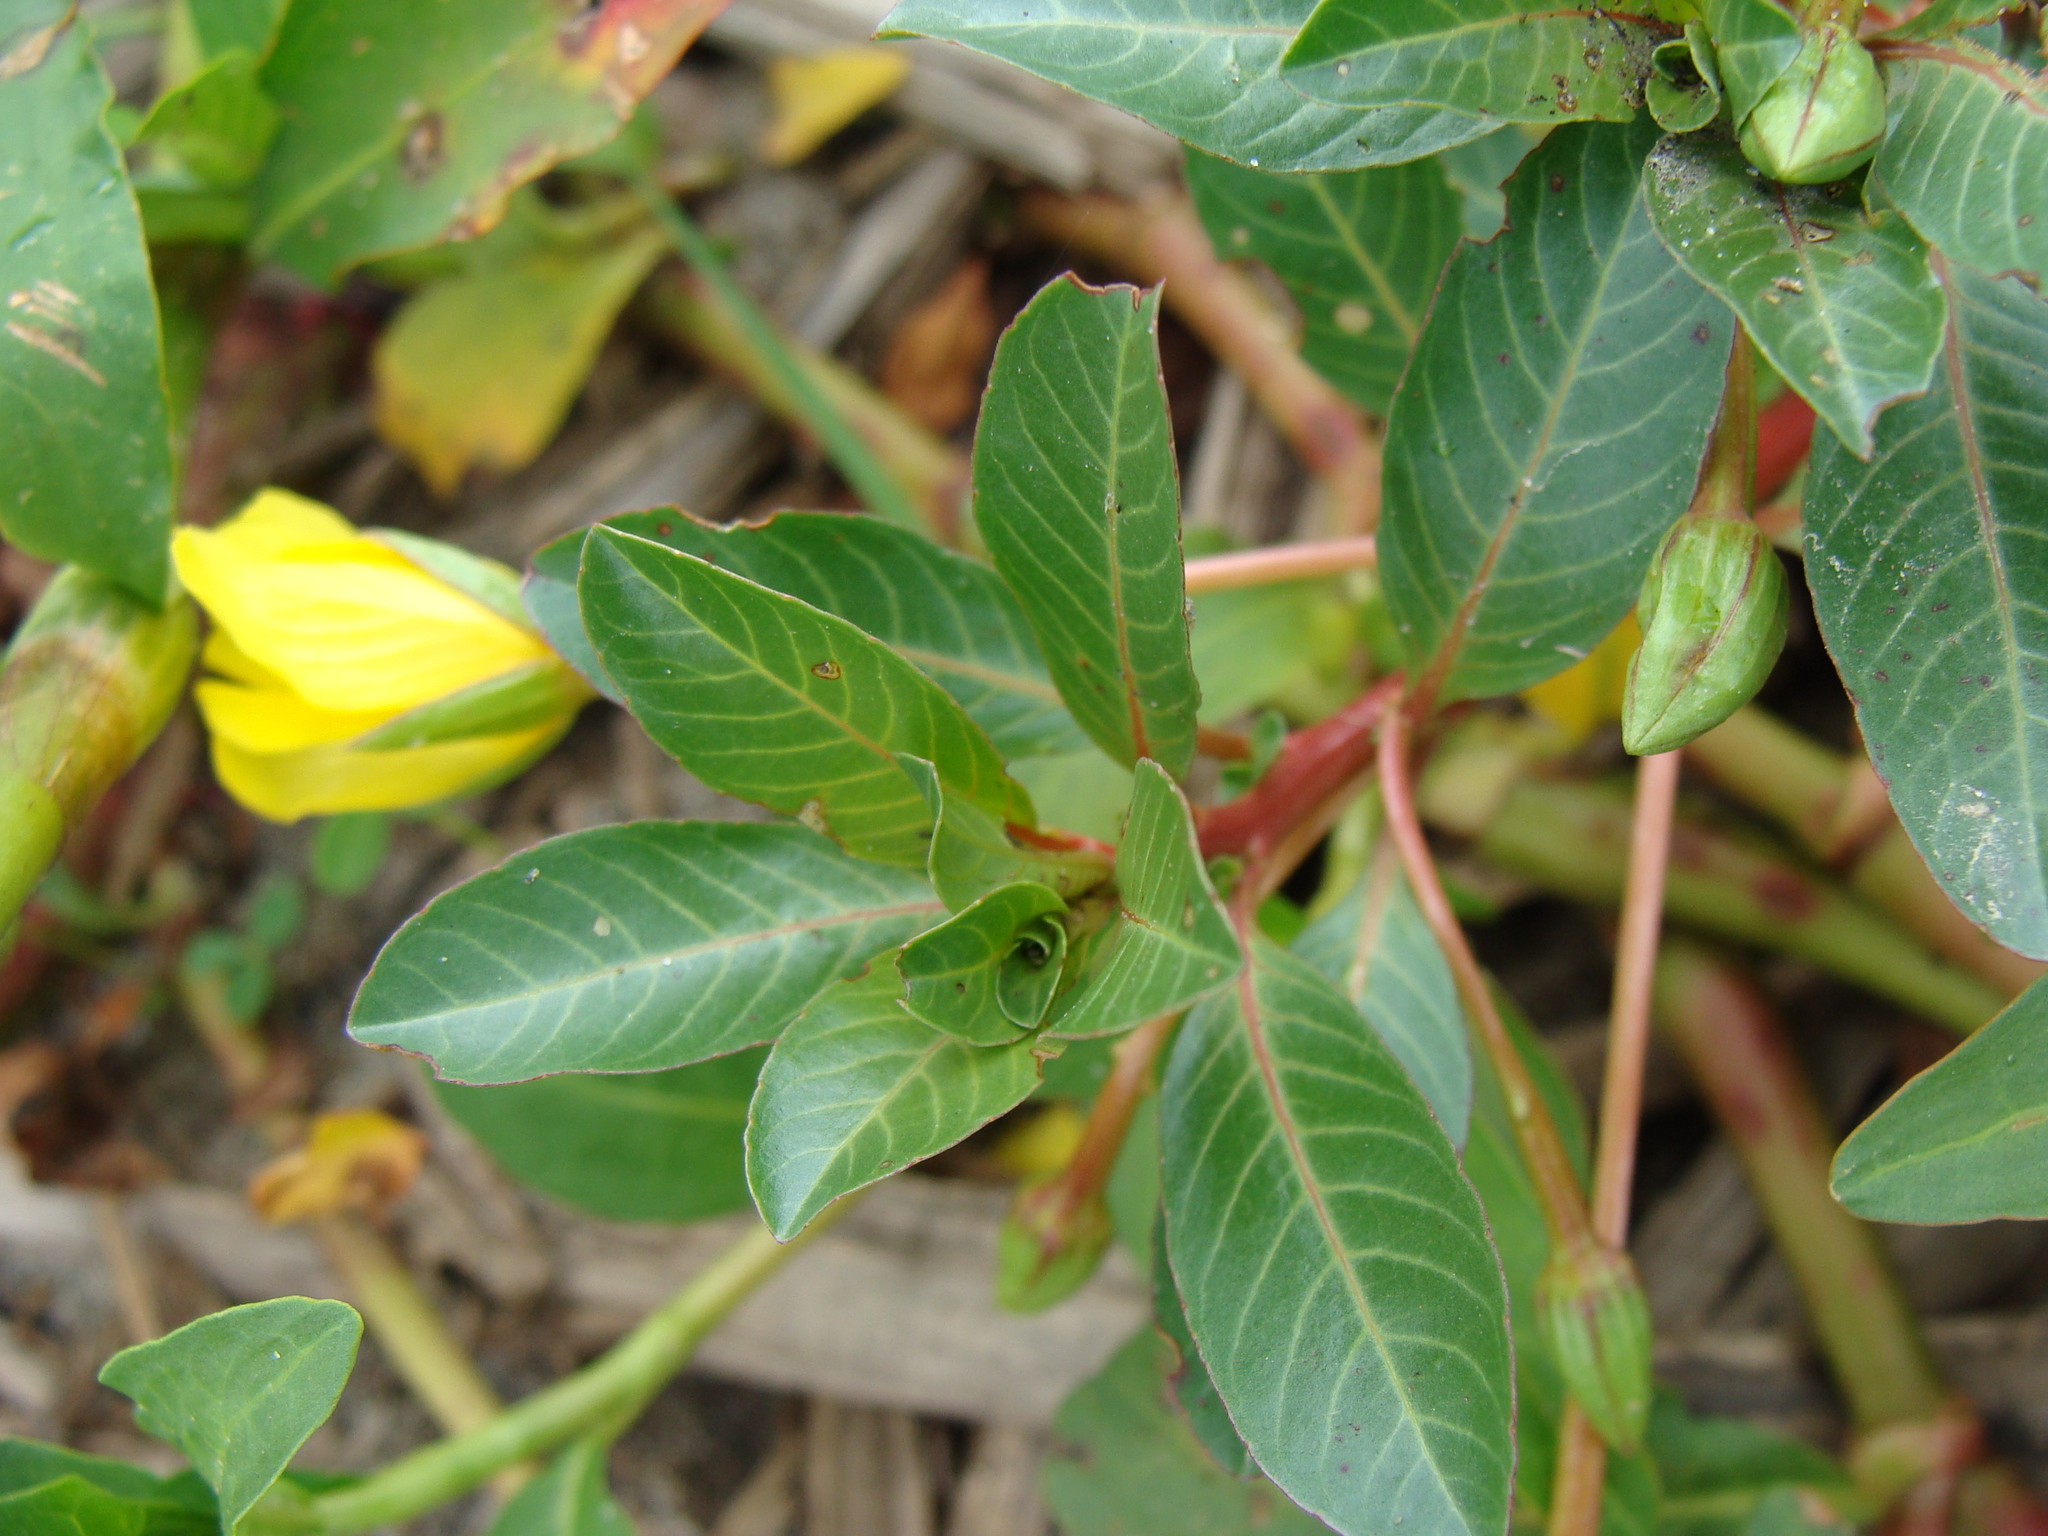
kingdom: Plantae
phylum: Tracheophyta
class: Magnoliopsida
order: Myrtales
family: Onagraceae
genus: Ludwigia
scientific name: Ludwigia peploides
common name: Floating primrose-willow
